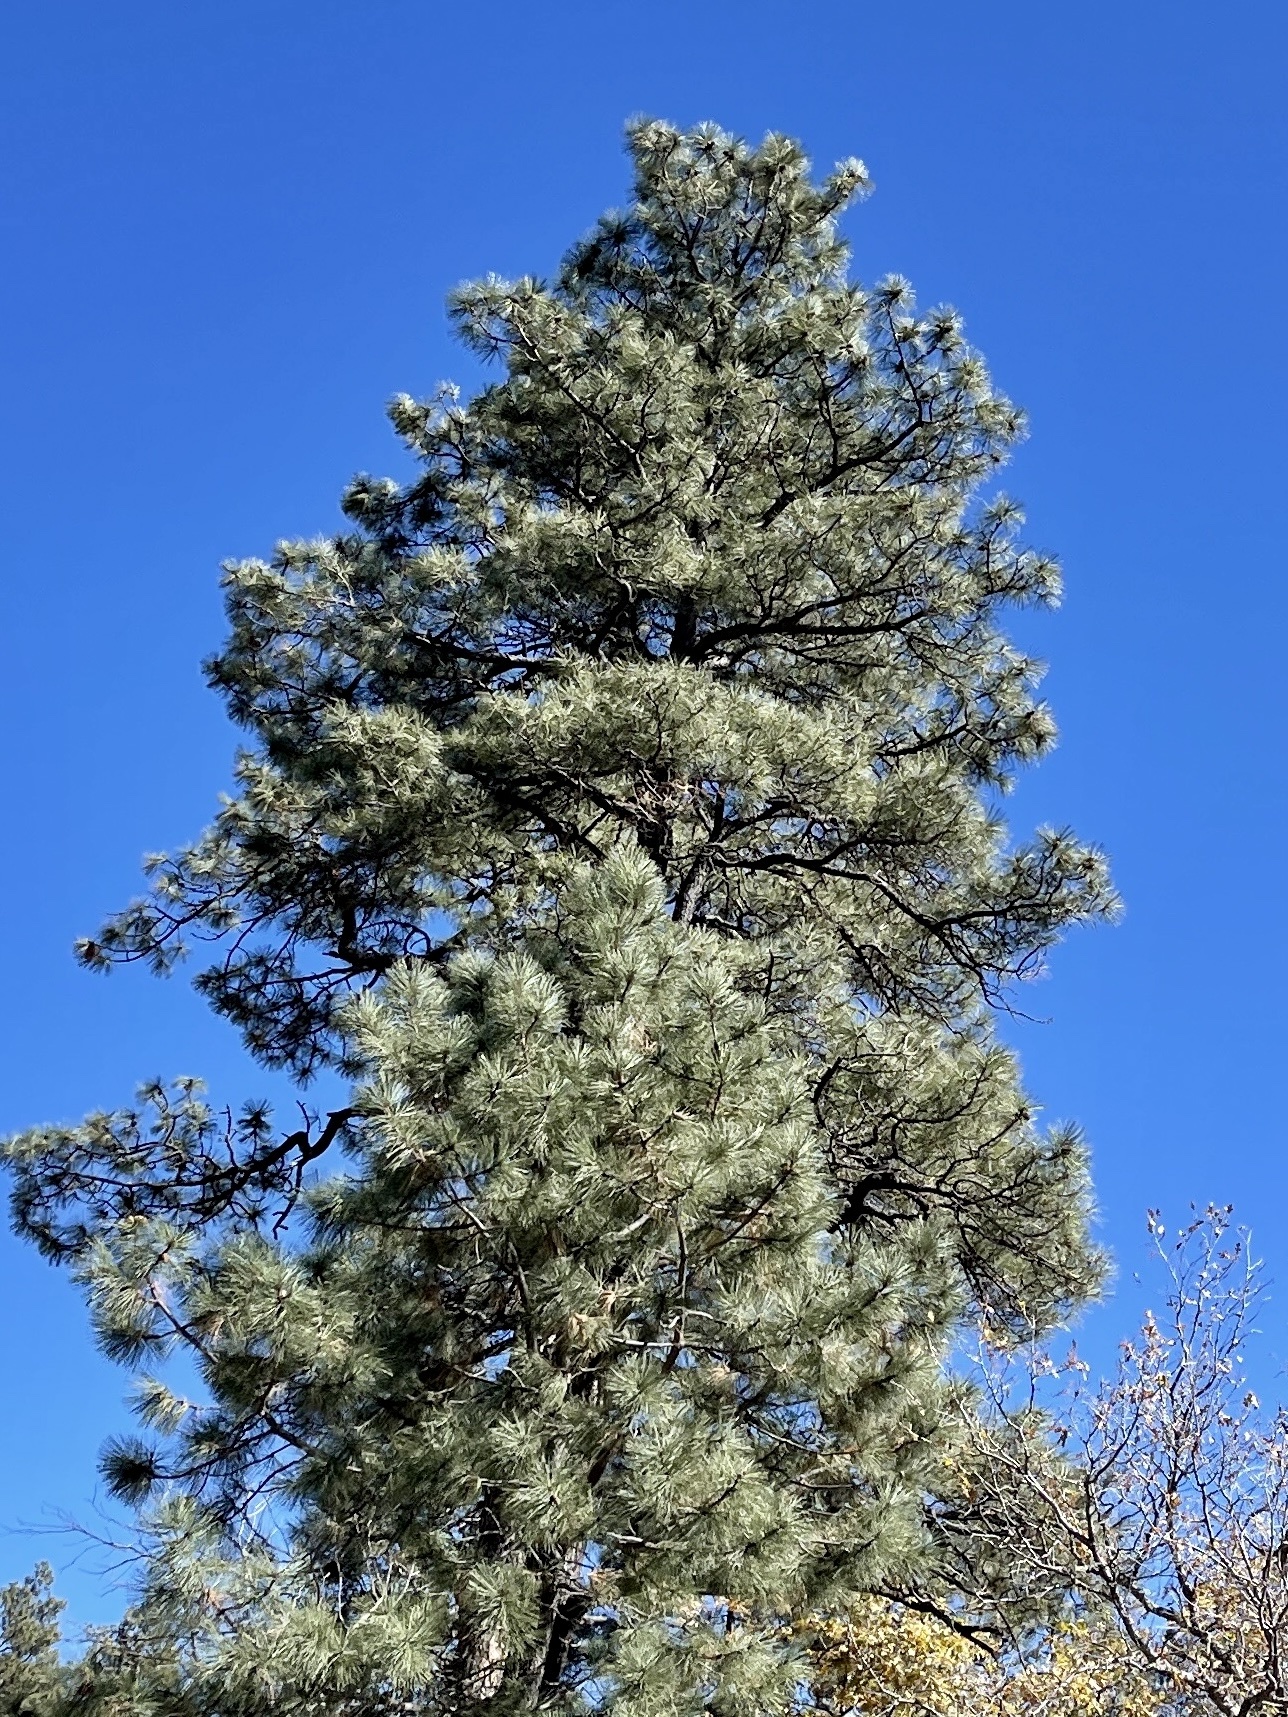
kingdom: Plantae
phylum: Tracheophyta
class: Pinopsida
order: Pinales
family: Pinaceae
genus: Pinus
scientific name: Pinus ponderosa
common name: Western yellow-pine
